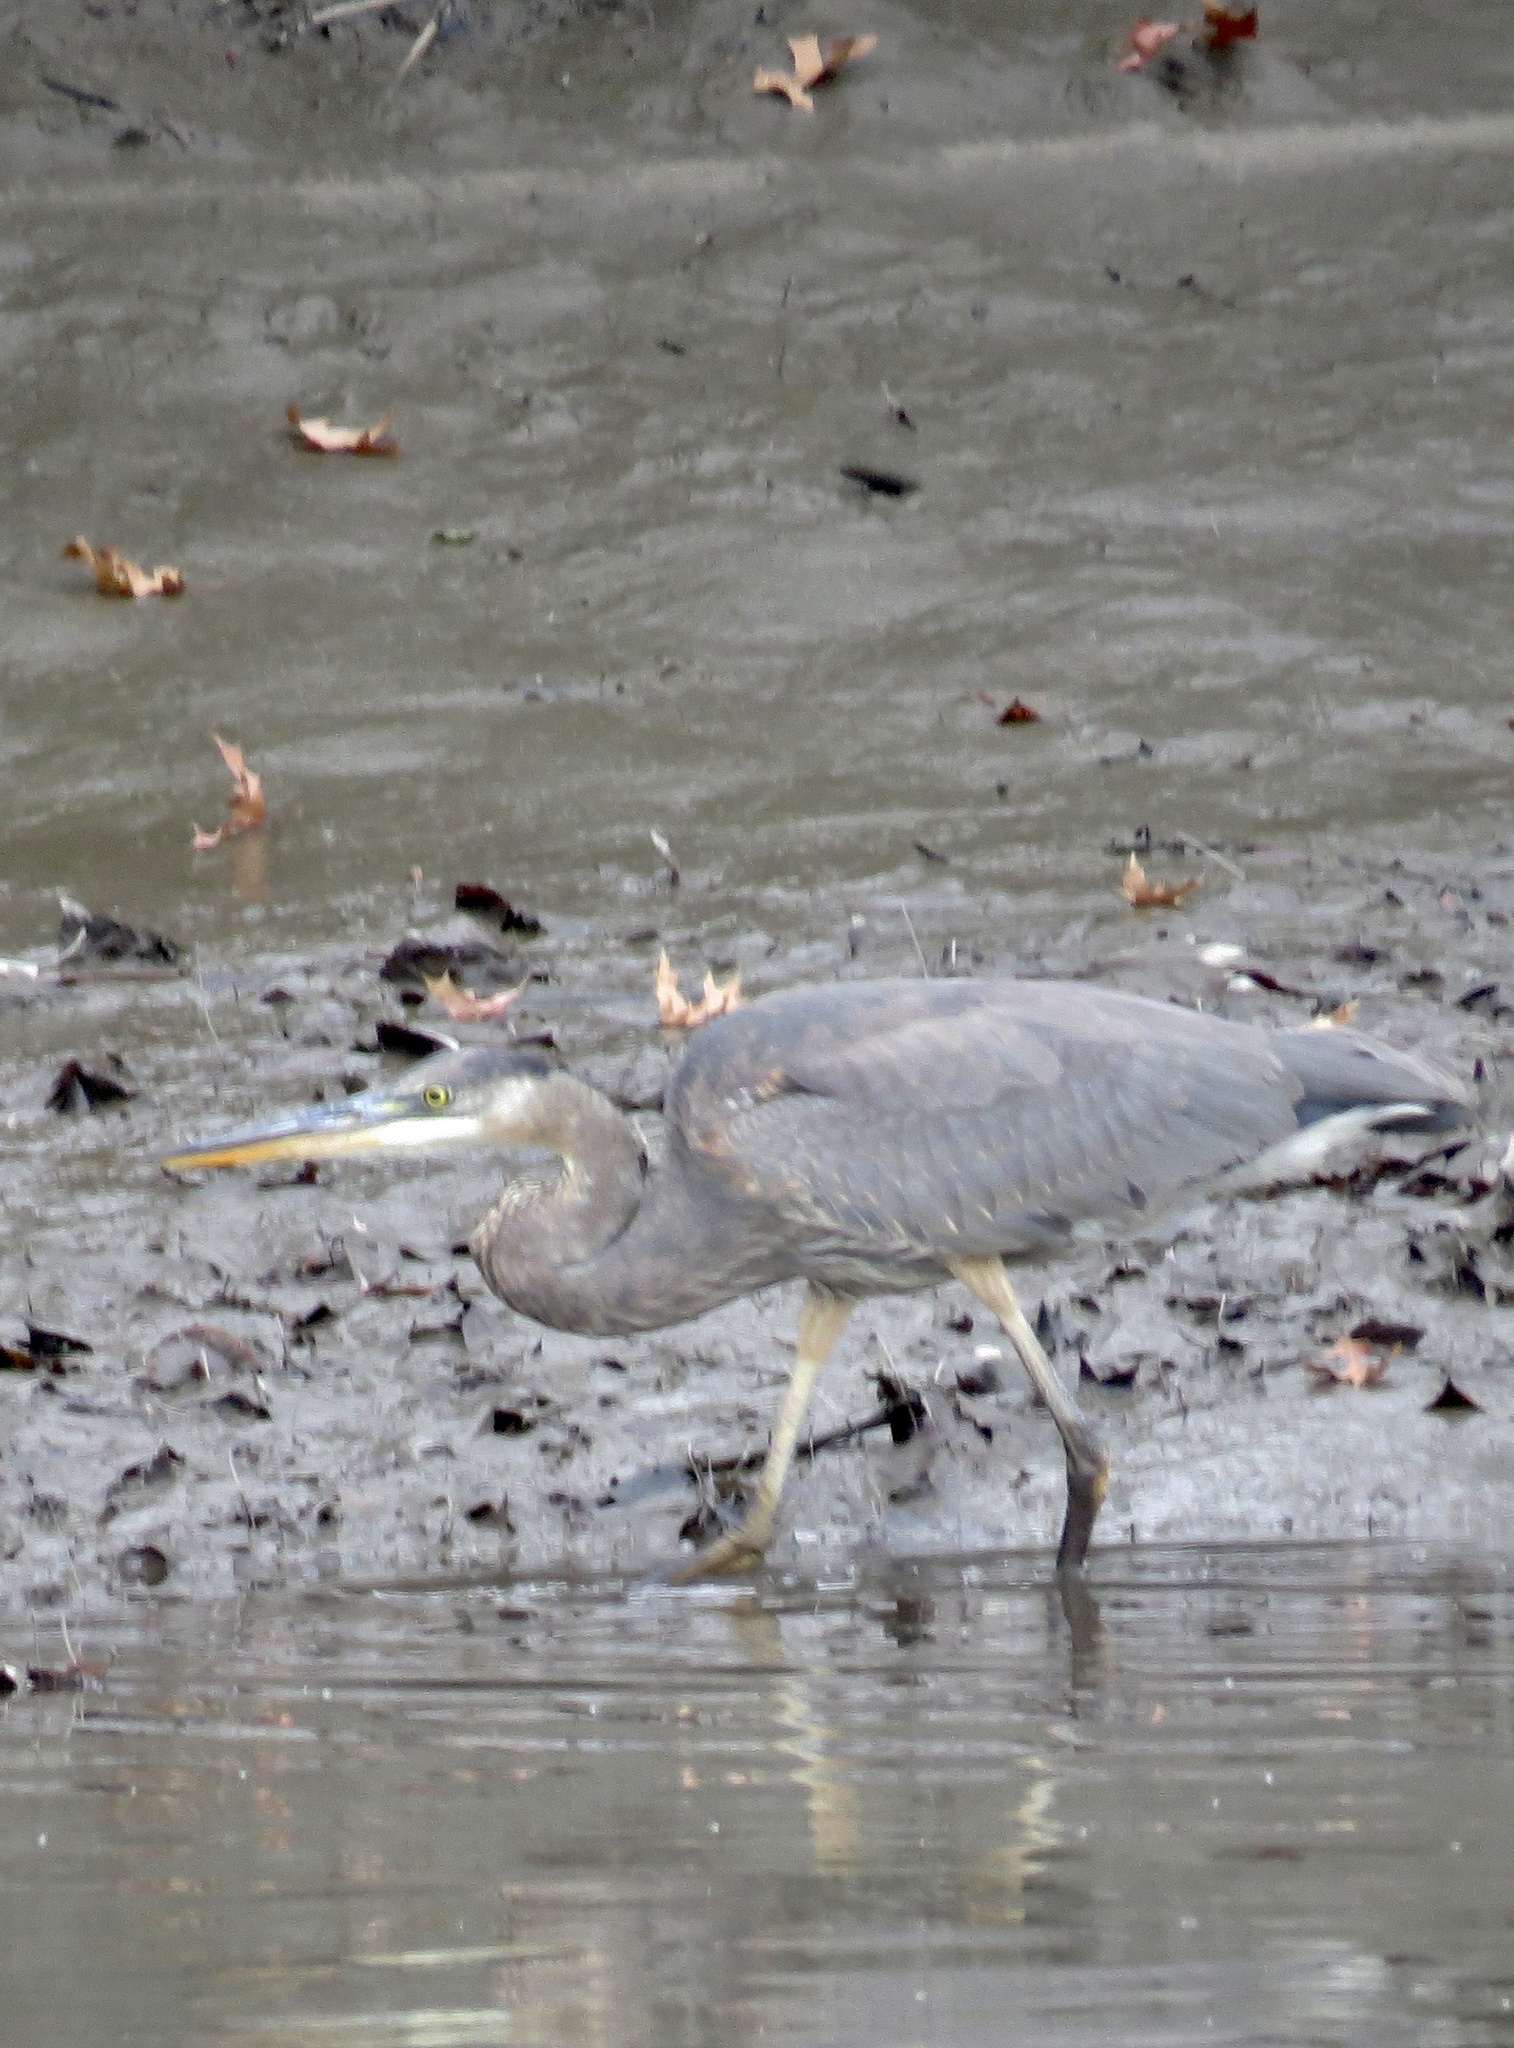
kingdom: Animalia
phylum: Chordata
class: Aves
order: Pelecaniformes
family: Ardeidae
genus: Ardea
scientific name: Ardea herodias
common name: Great blue heron
